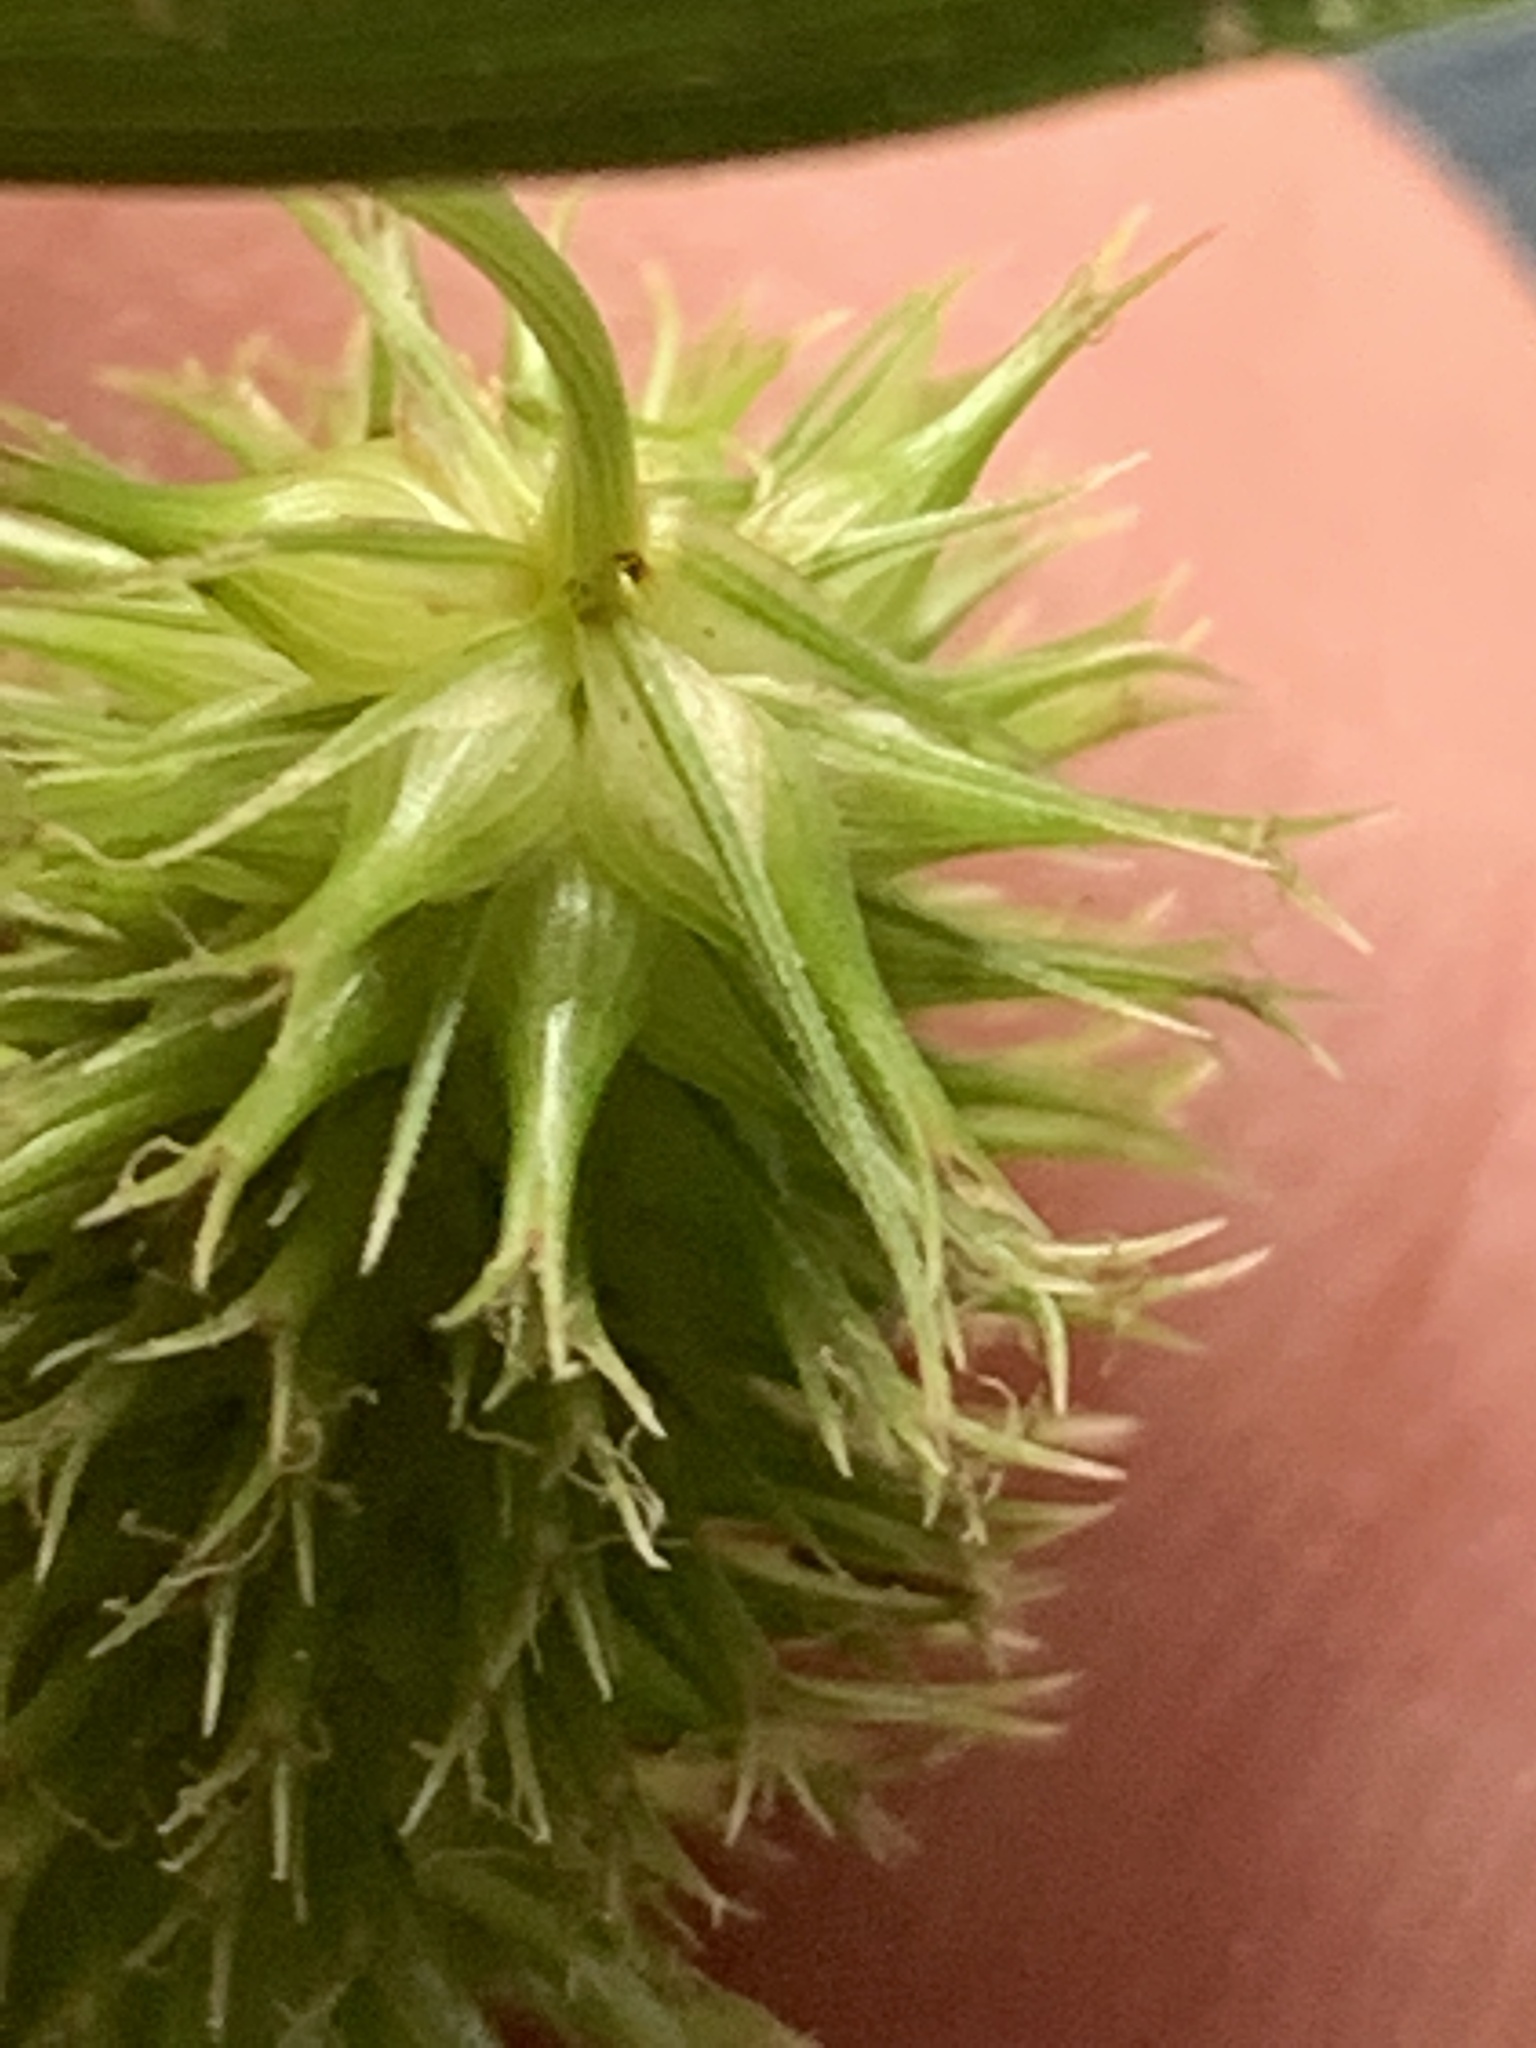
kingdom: Plantae
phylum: Tracheophyta
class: Liliopsida
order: Poales
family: Cyperaceae
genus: Carex
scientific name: Carex comosa
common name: Bristly sedge
